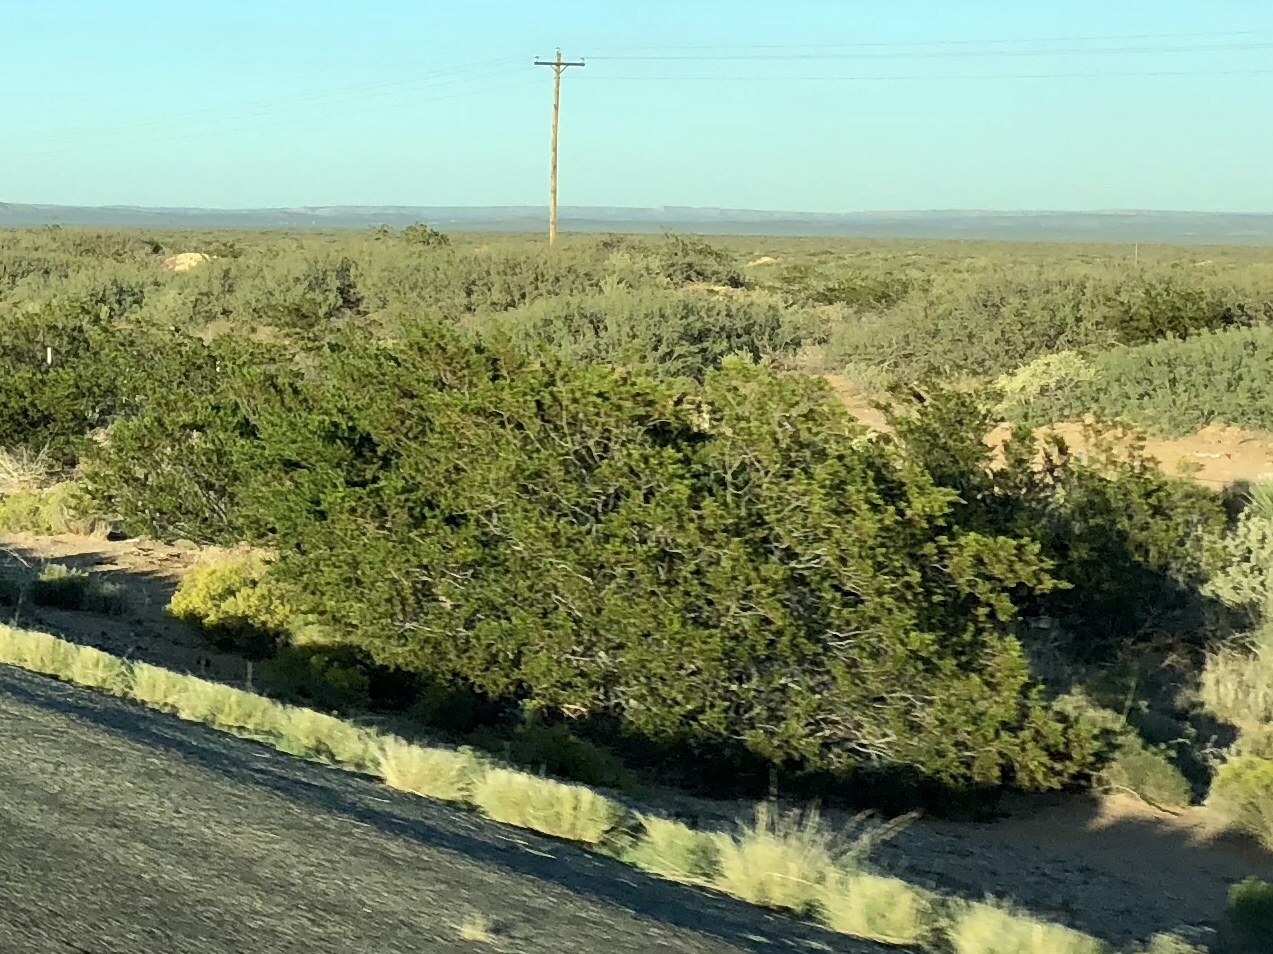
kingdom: Plantae
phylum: Tracheophyta
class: Magnoliopsida
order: Zygophyllales
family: Zygophyllaceae
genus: Larrea
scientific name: Larrea tridentata
